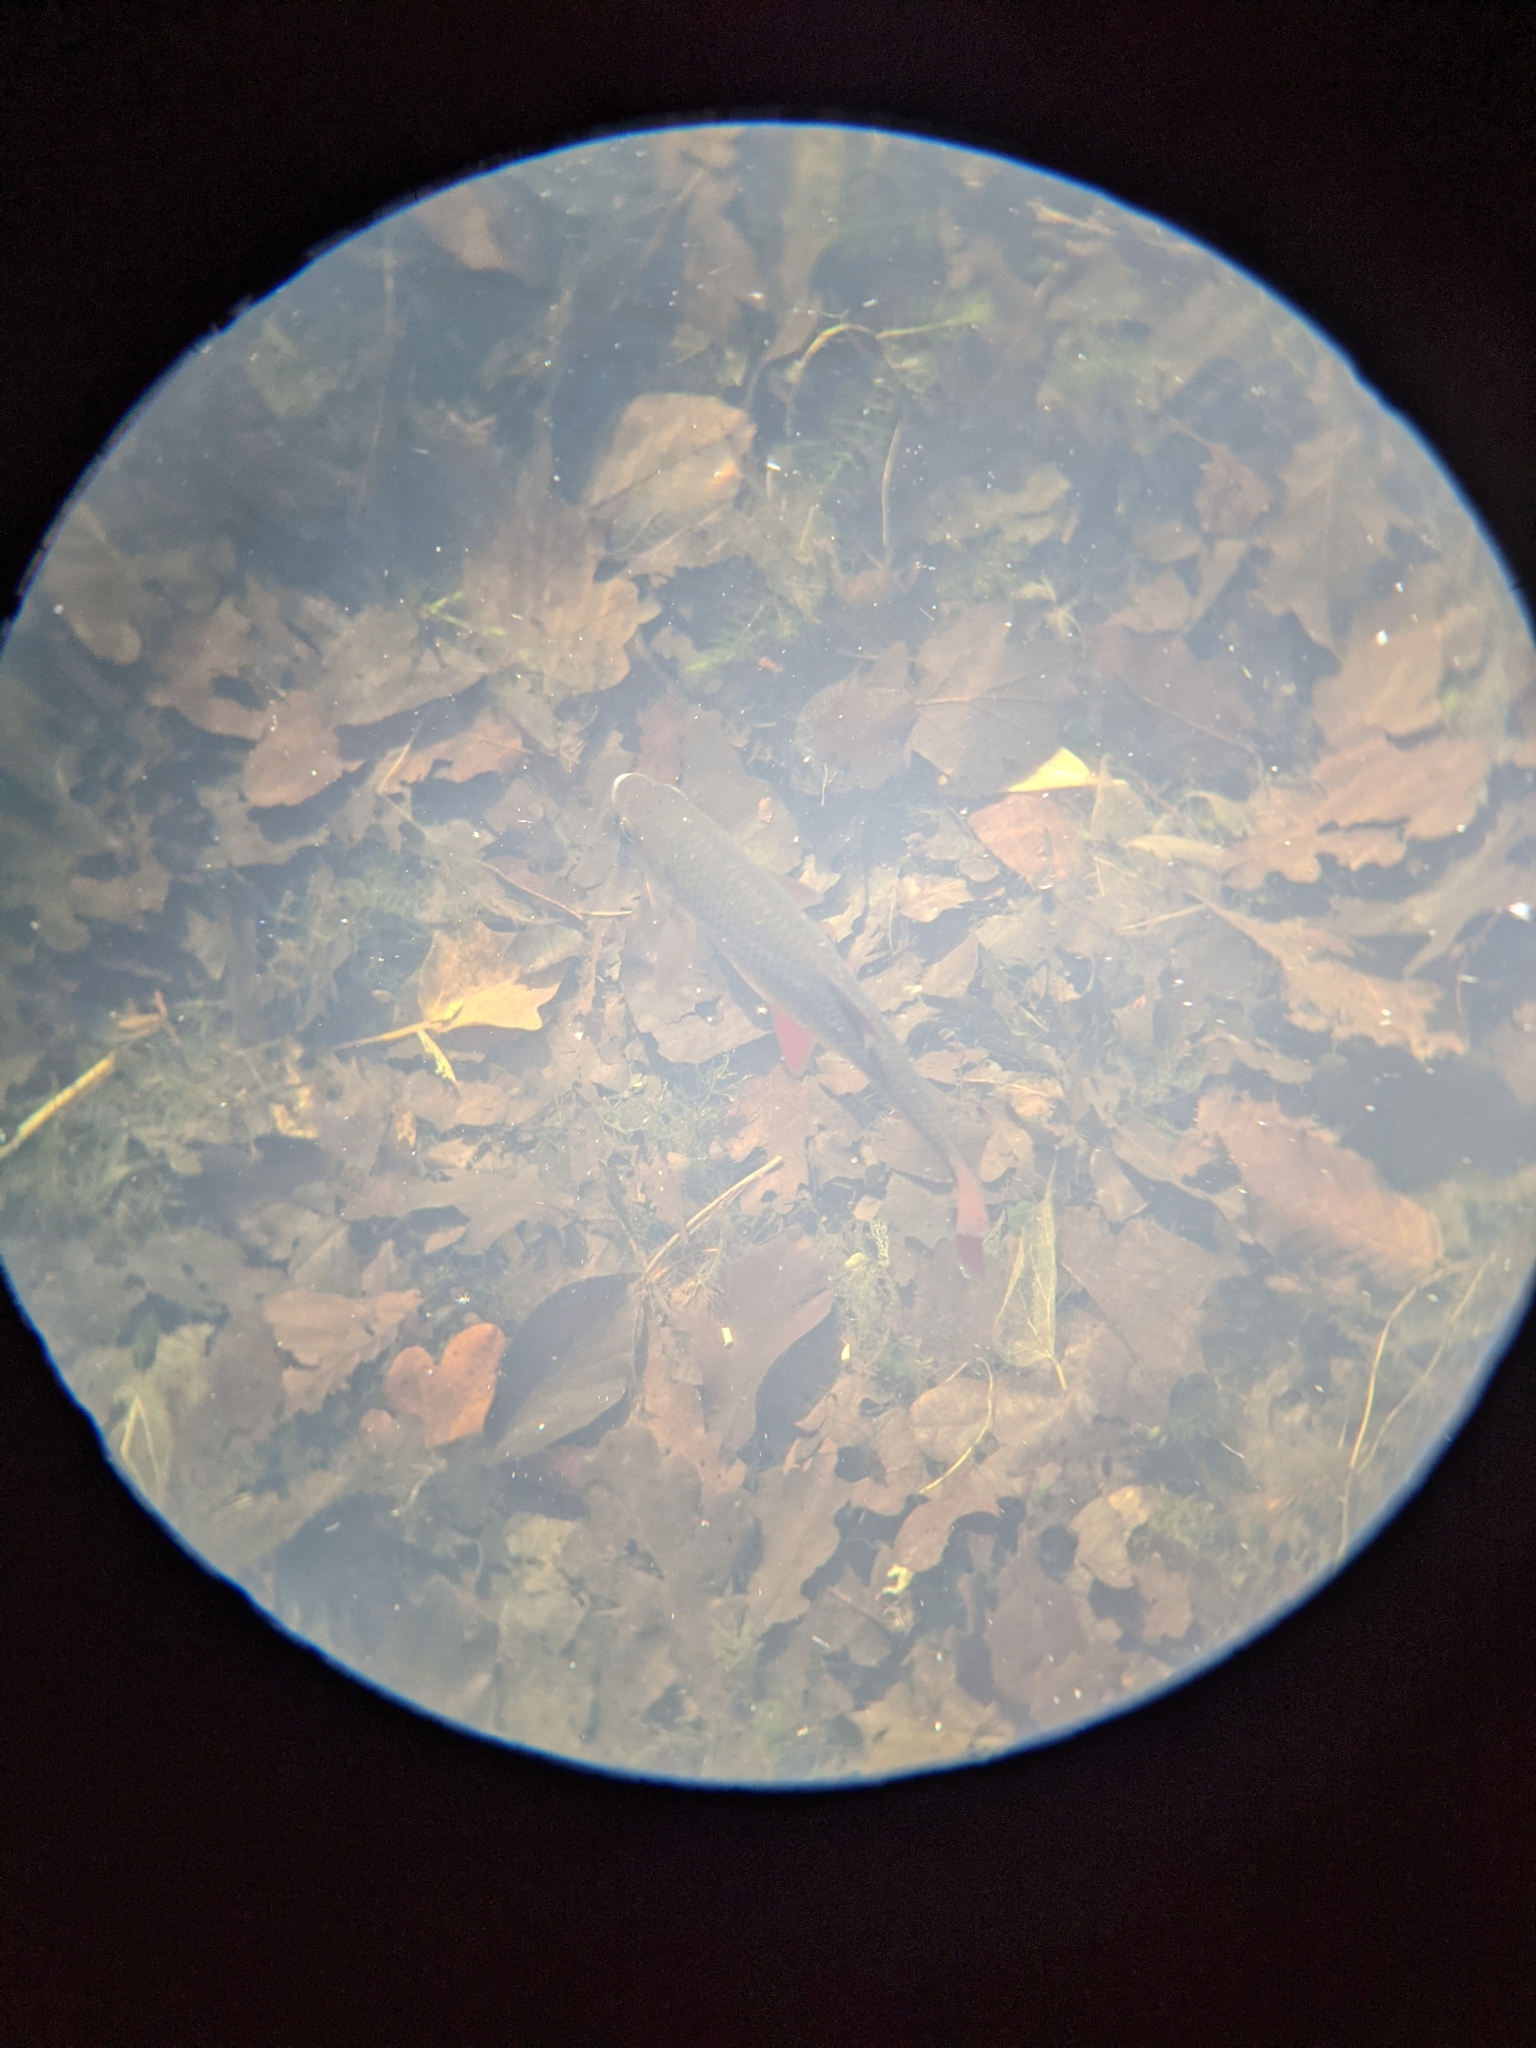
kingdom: Animalia
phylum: Chordata
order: Cypriniformes
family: Cyprinidae
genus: Squalius
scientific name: Squalius cephalus
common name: Chub
